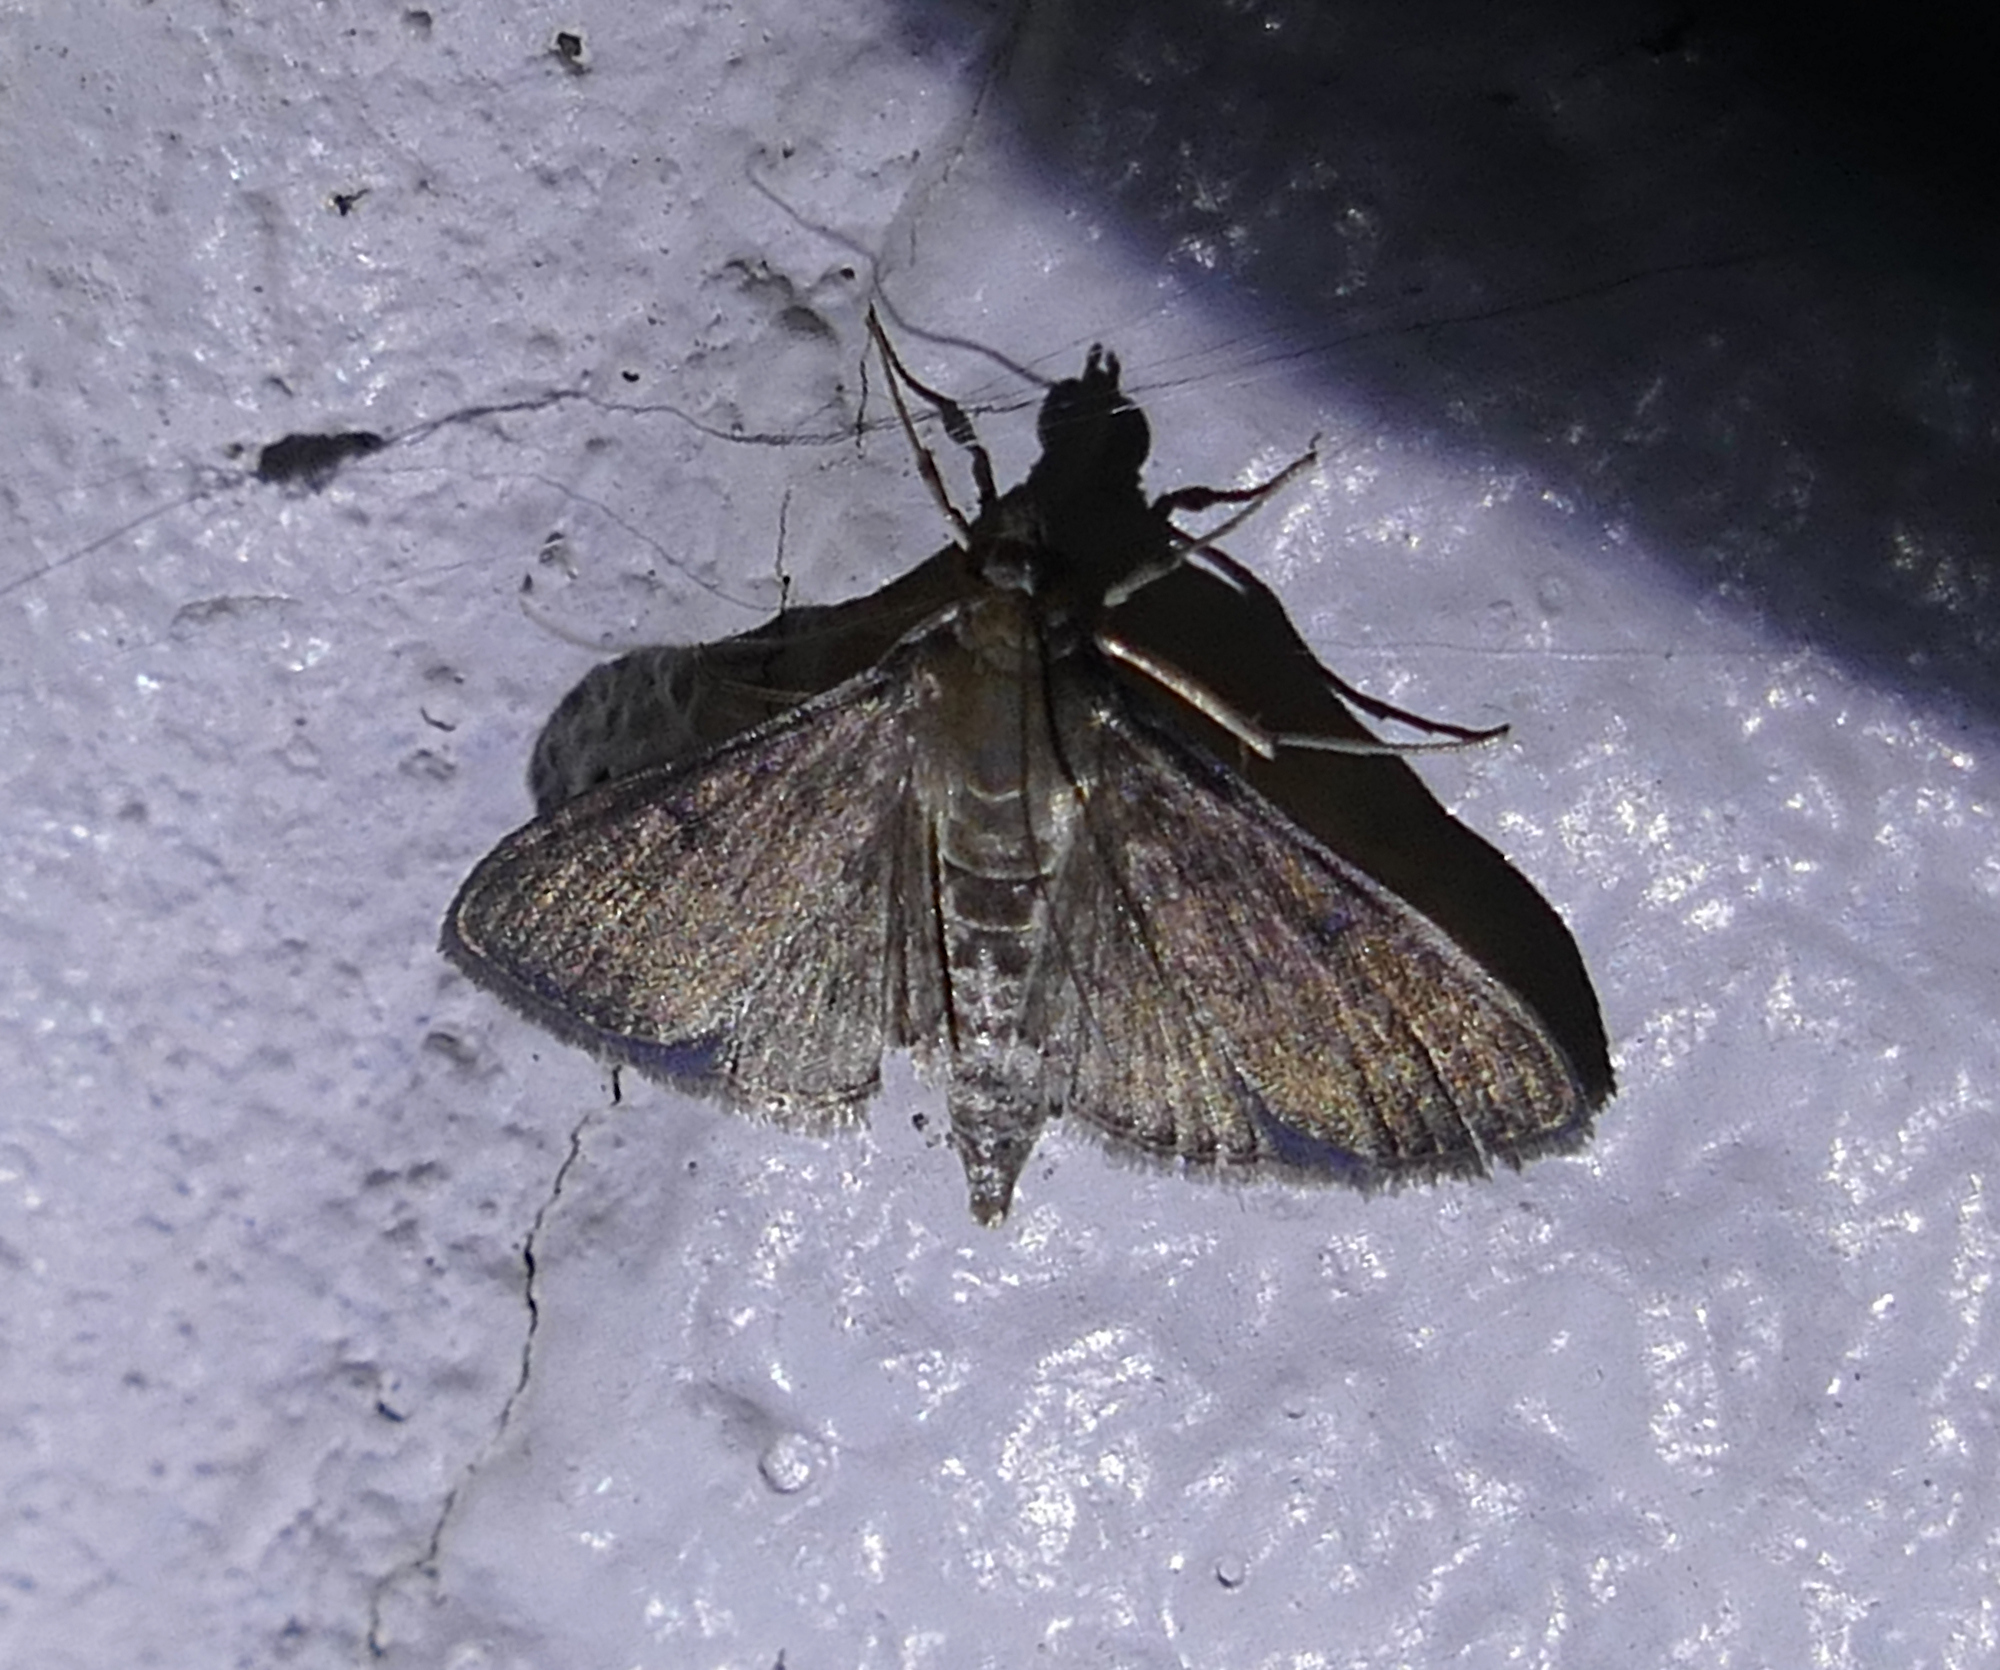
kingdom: Animalia
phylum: Arthropoda
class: Insecta
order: Lepidoptera
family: Crambidae
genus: Herpetogramma
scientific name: Herpetogramma phaeopteralis
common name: Dusky herpetogramma moth
